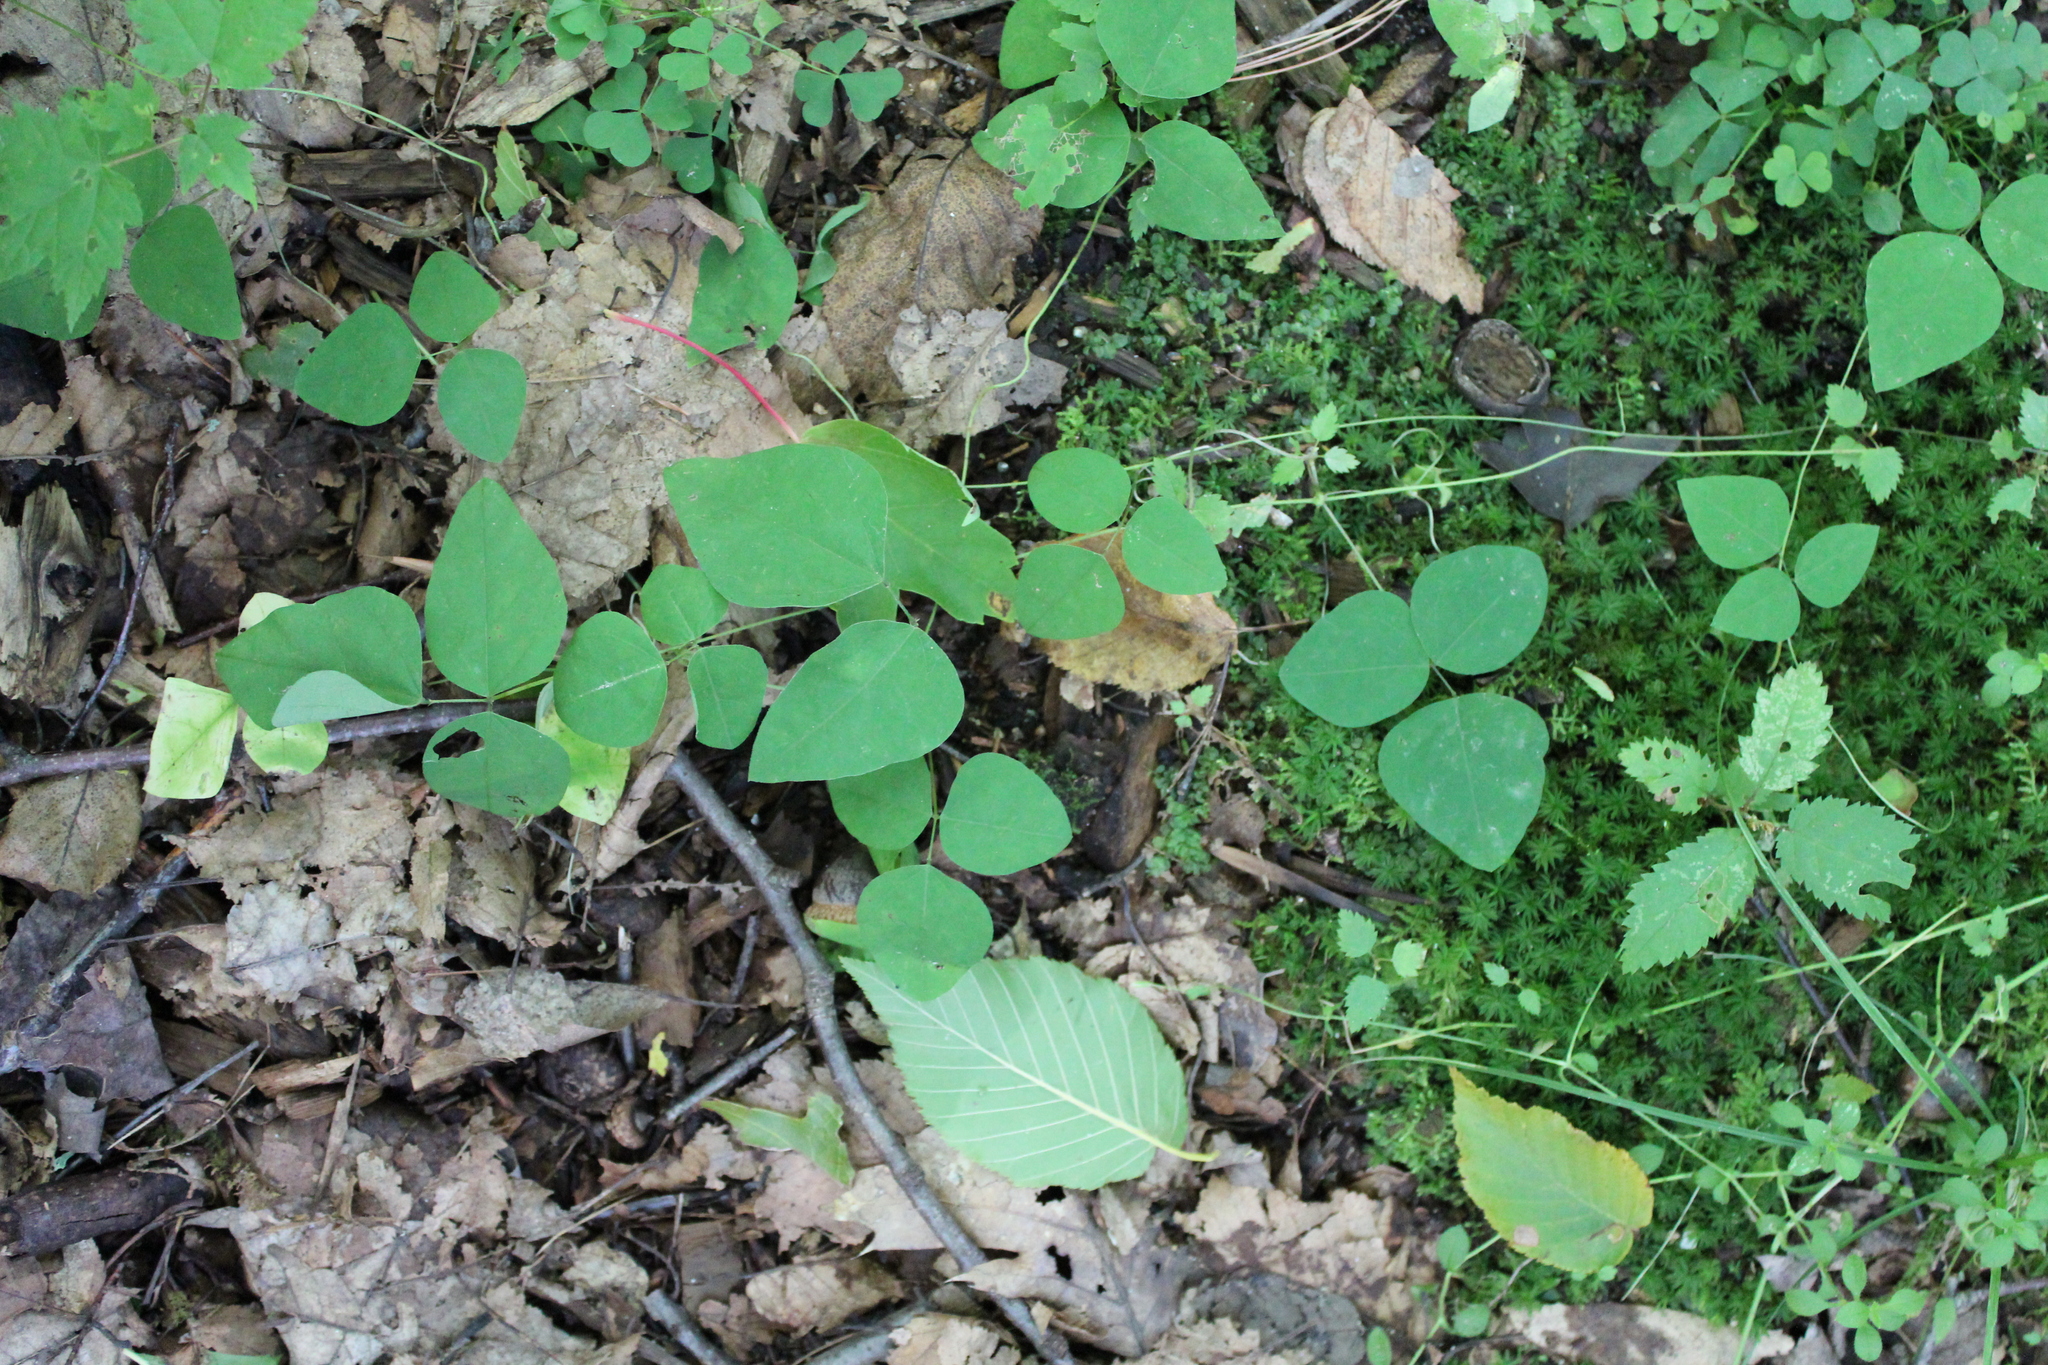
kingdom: Plantae
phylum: Tracheophyta
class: Magnoliopsida
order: Fabales
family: Fabaceae
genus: Amphicarpaea
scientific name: Amphicarpaea bracteata
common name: American hog peanut
